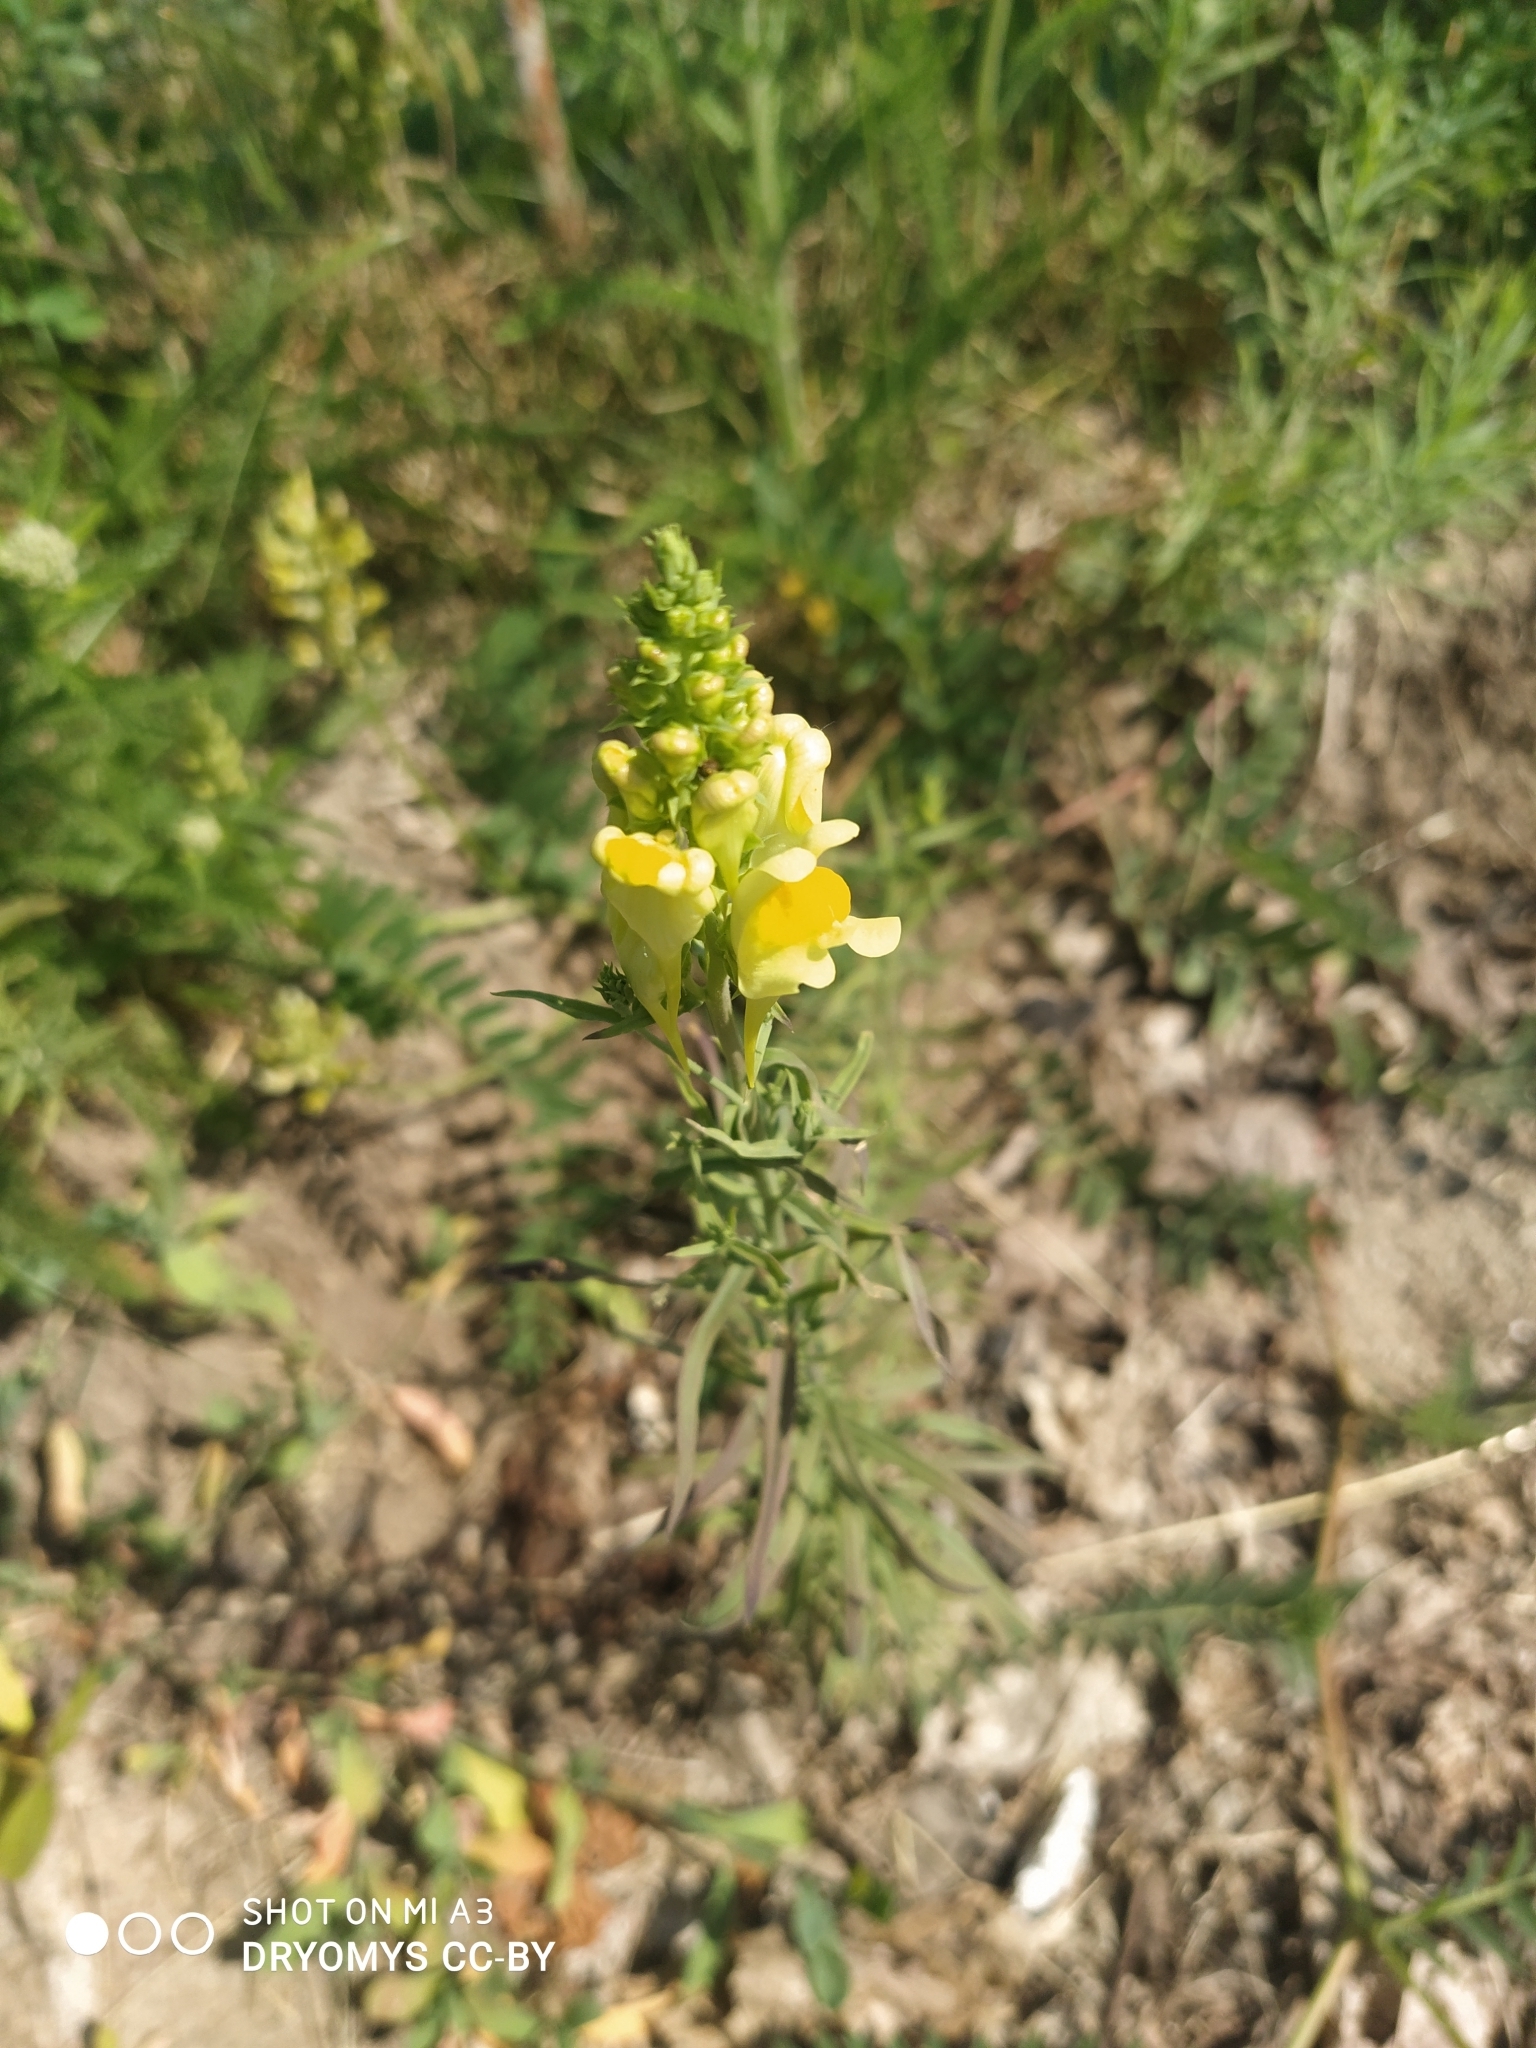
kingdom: Plantae
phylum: Tracheophyta
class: Magnoliopsida
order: Lamiales
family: Plantaginaceae
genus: Linaria
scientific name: Linaria vulgaris
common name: Butter and eggs
